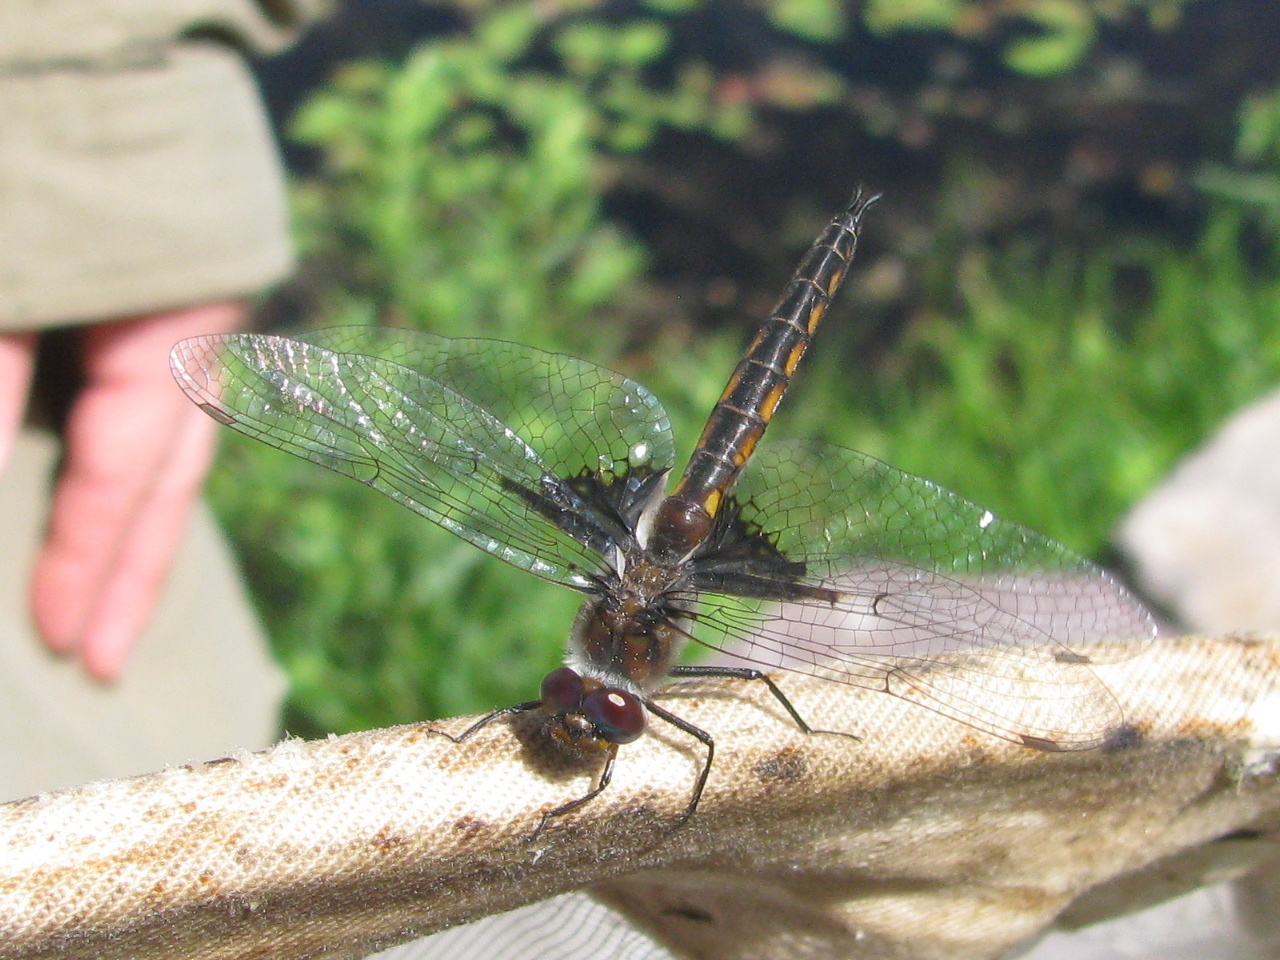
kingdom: Animalia
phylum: Arthropoda
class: Insecta
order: Odonata
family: Corduliidae
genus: Epitheca
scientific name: Epitheca cynosura
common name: Common baskettail
